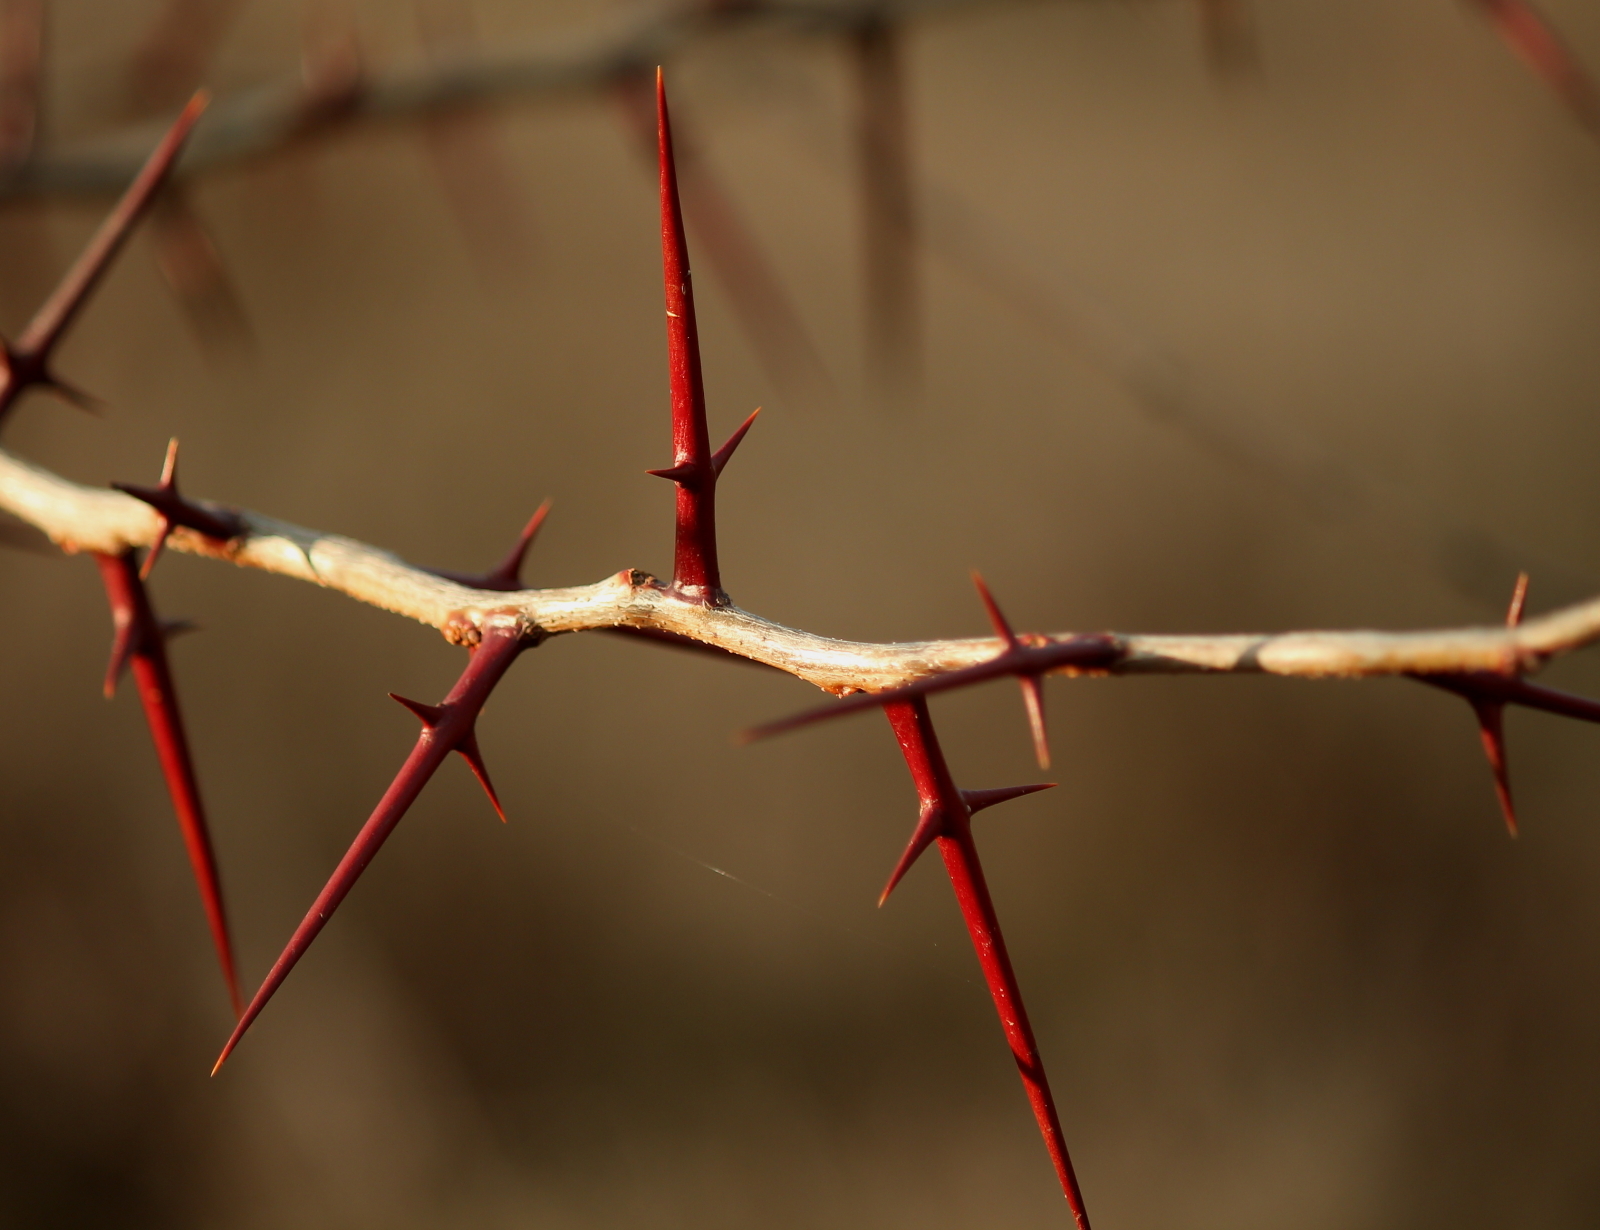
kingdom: Plantae
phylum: Tracheophyta
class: Magnoliopsida
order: Fabales
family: Fabaceae
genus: Gleditsia
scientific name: Gleditsia triacanthos
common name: Common honeylocust
